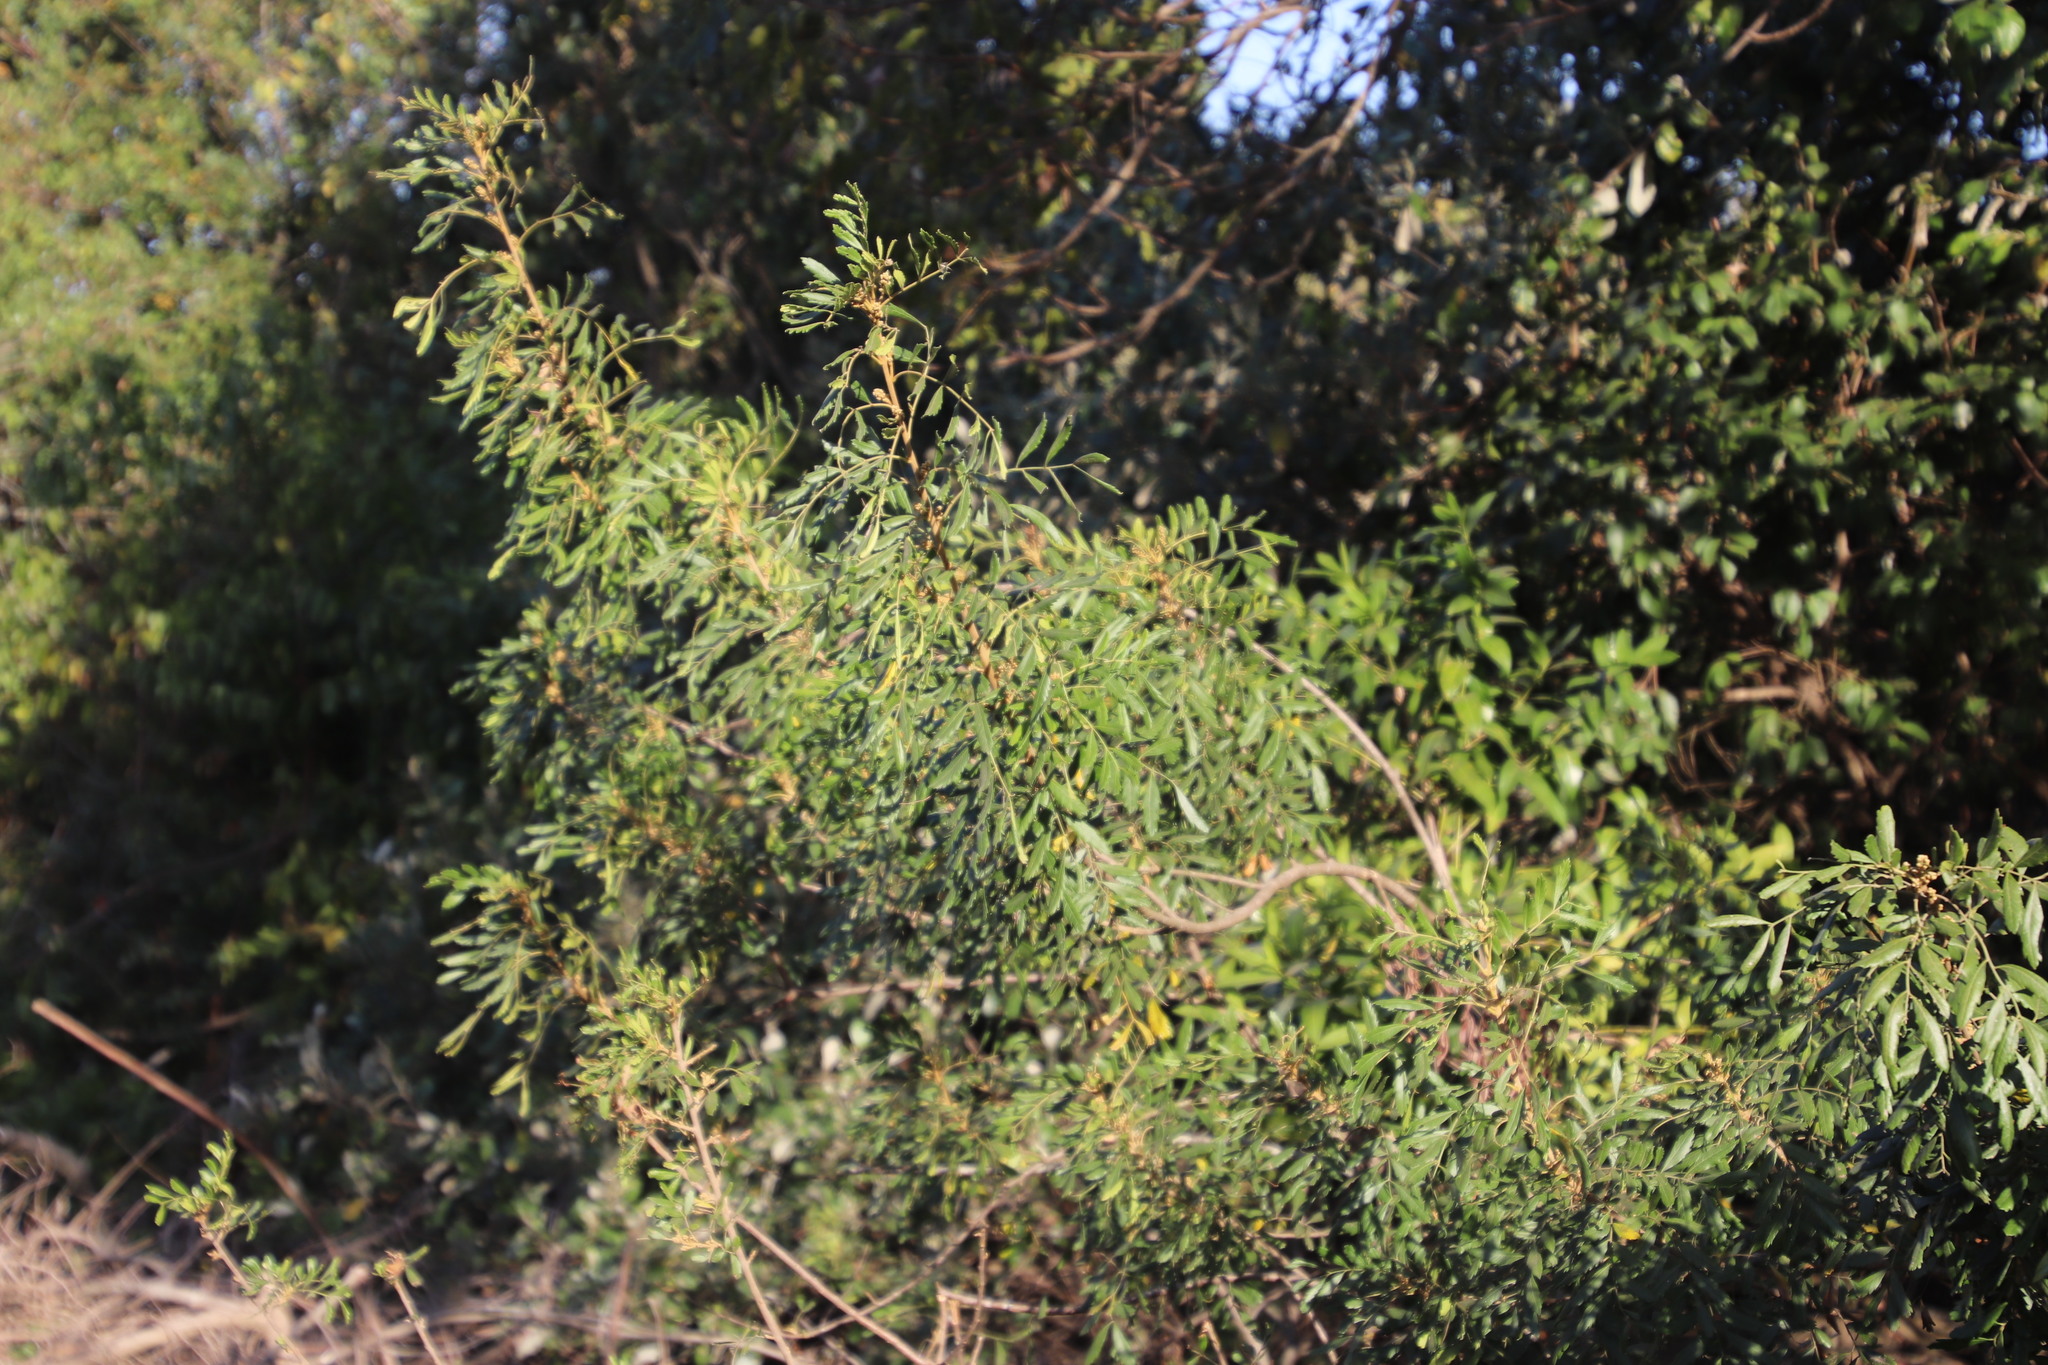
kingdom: Plantae
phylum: Tracheophyta
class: Magnoliopsida
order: Sapindales
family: Sapindaceae
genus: Hippobromus
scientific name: Hippobromus pauciflorus
